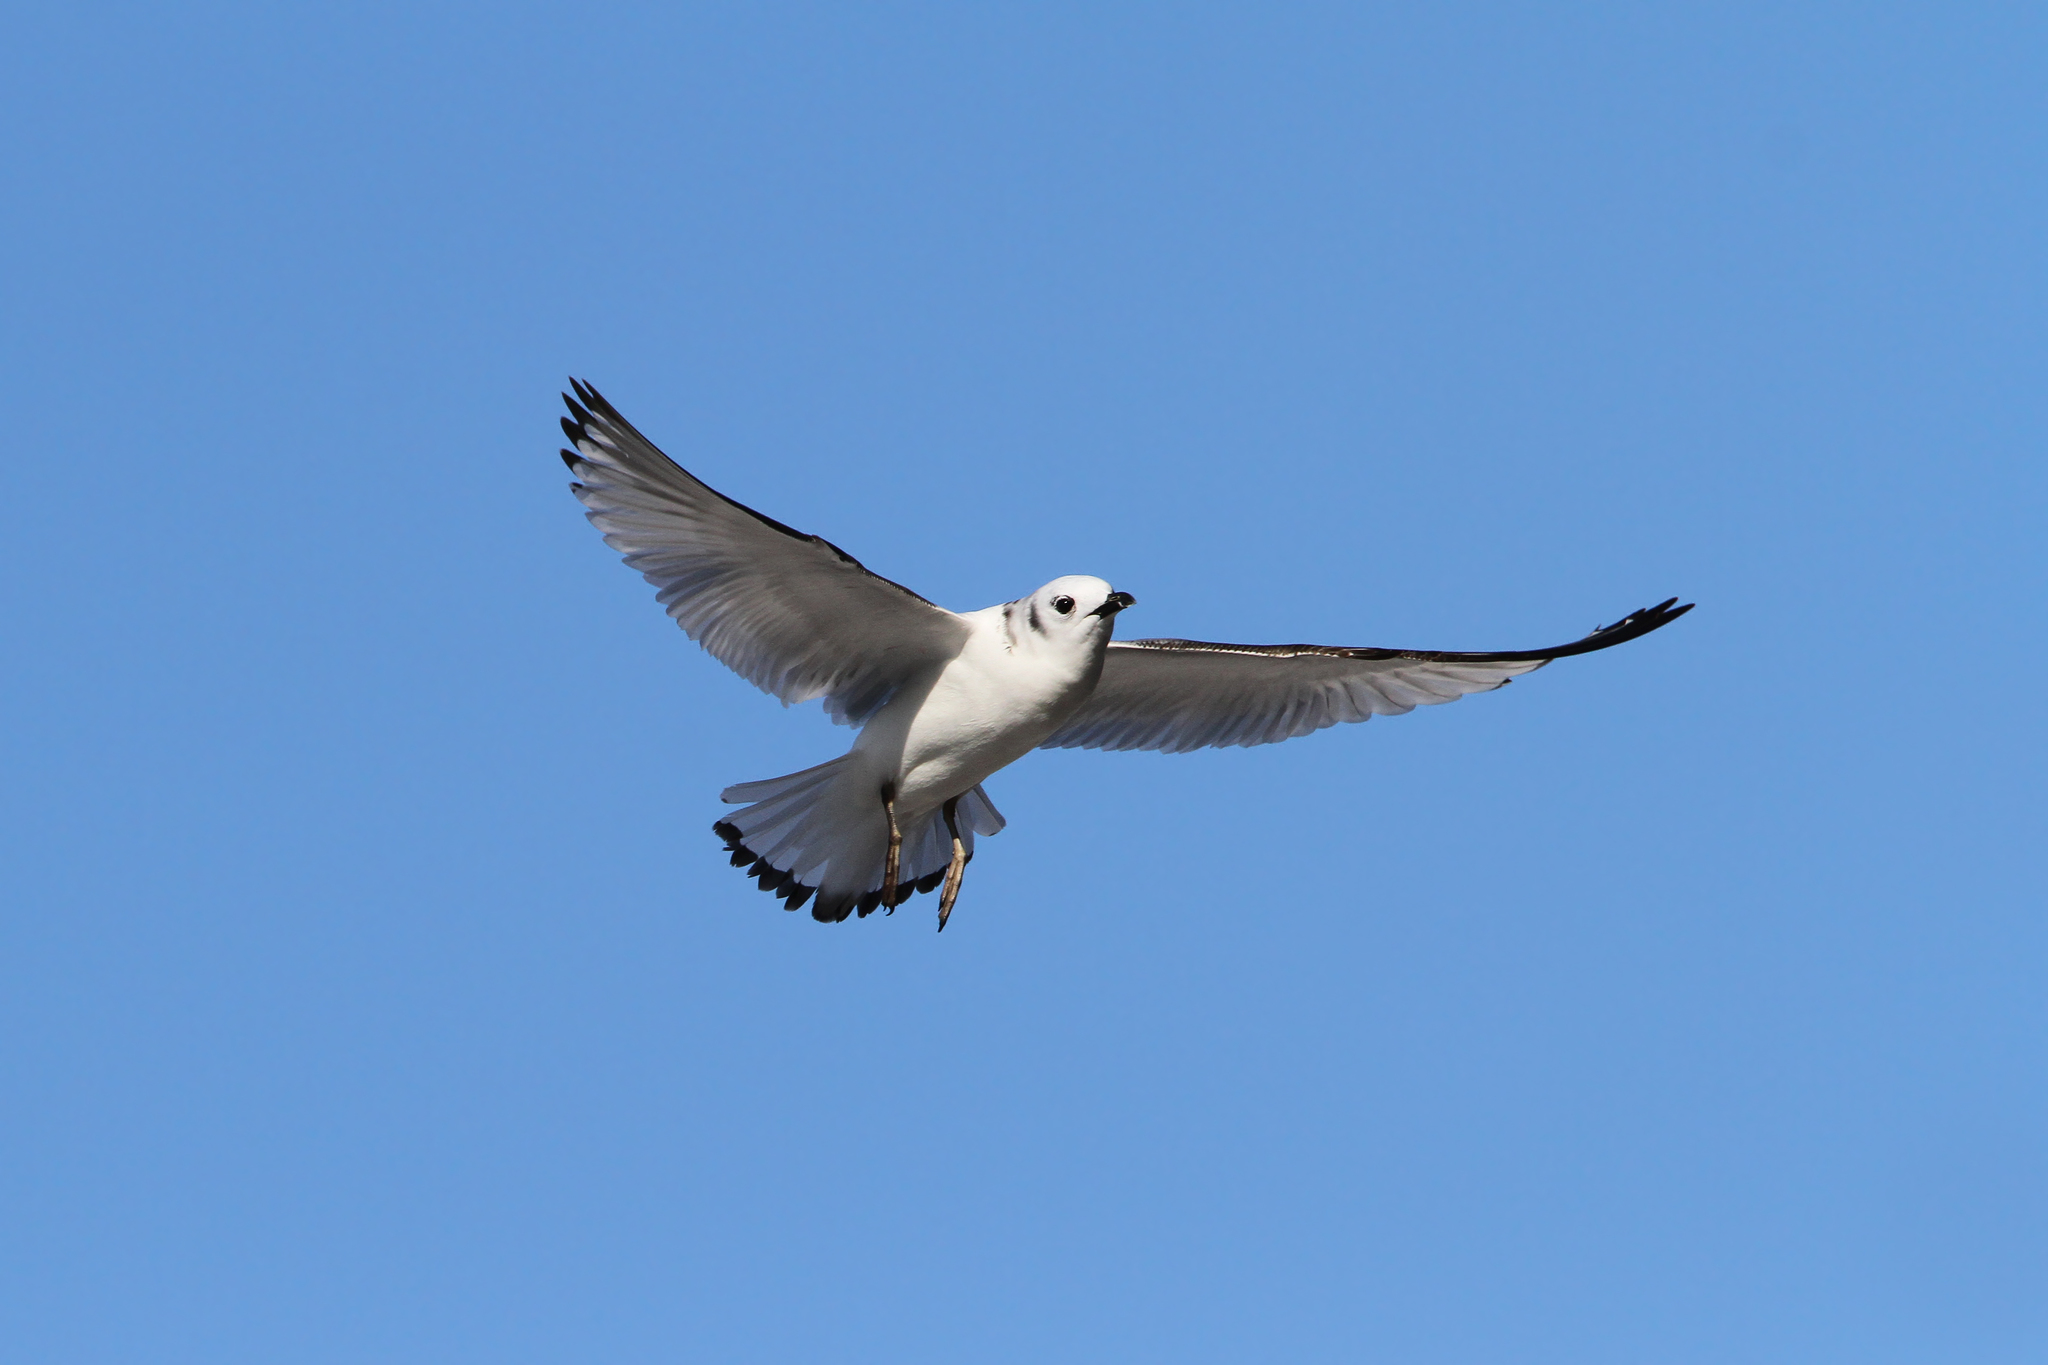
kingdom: Animalia
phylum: Chordata
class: Aves
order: Charadriiformes
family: Laridae
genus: Rissa
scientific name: Rissa tridactyla
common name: Black-legged kittiwake
